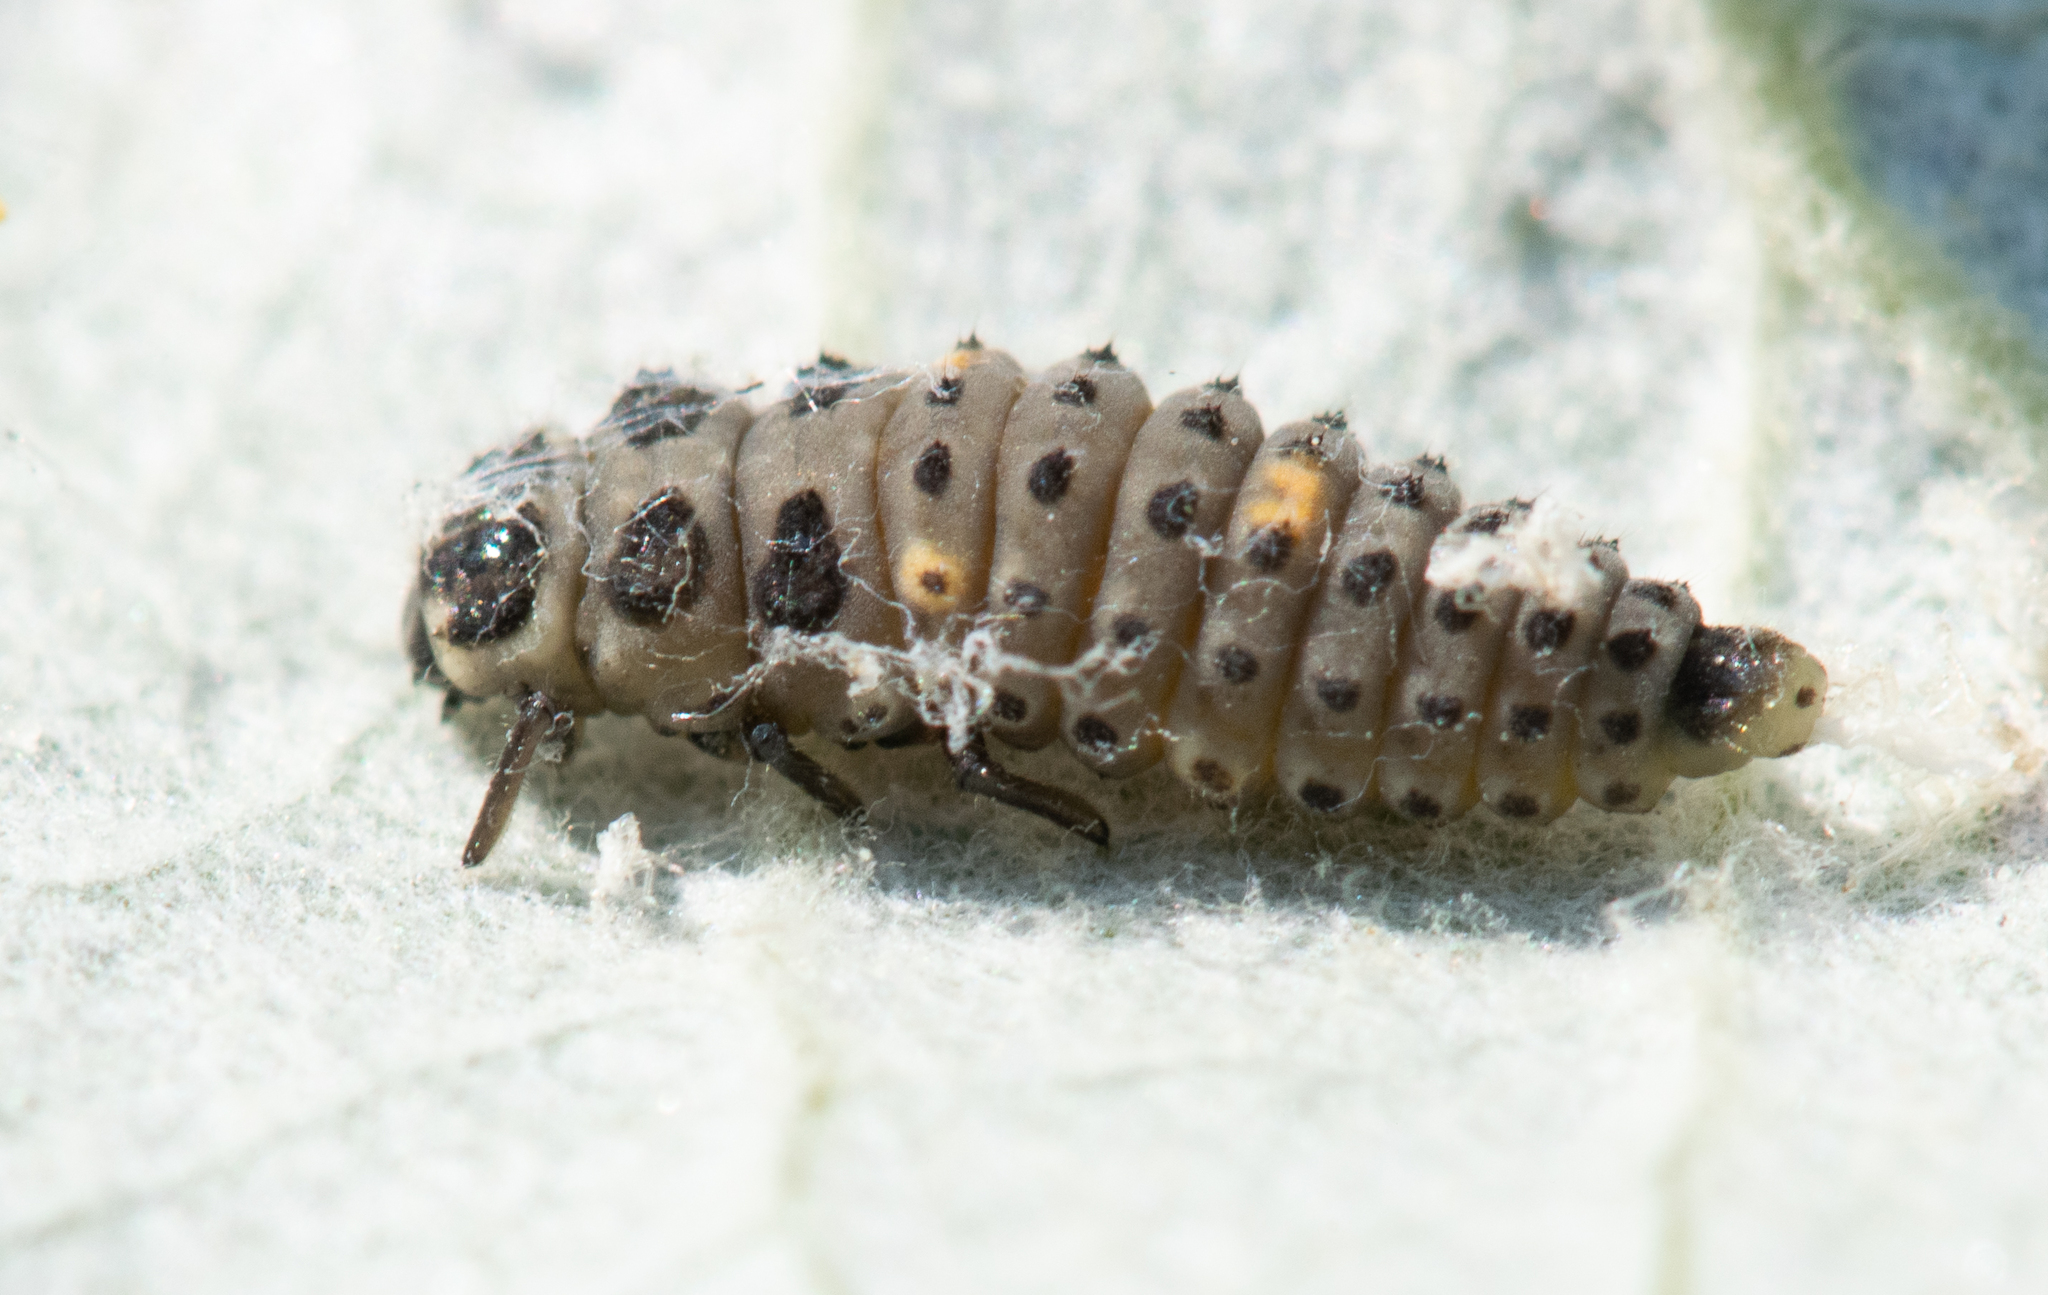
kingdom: Animalia
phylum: Arthropoda
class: Insecta
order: Coleoptera
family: Coccinellidae
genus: Adalia
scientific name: Adalia bipunctata
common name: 2-spot ladybird
